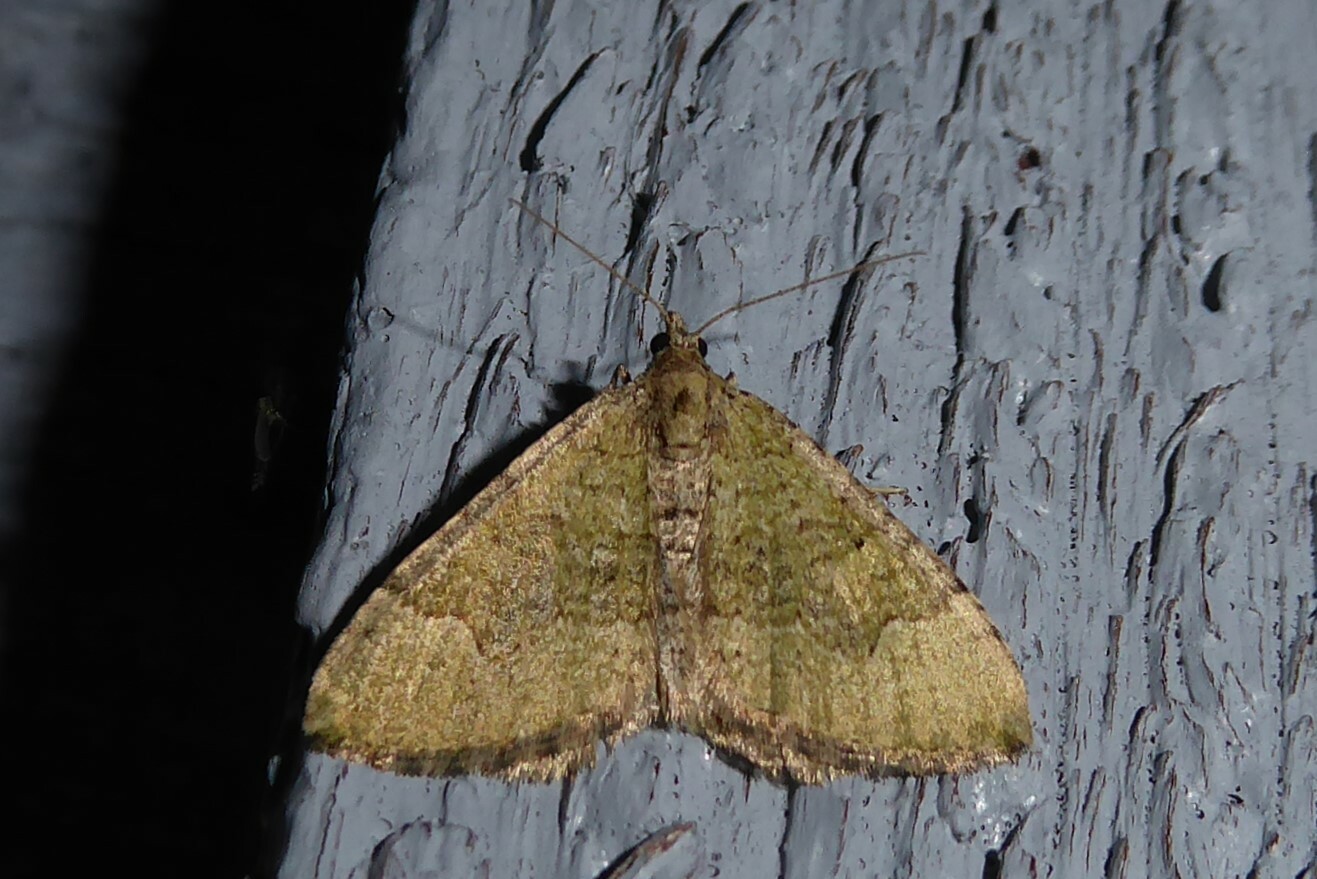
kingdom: Animalia
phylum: Arthropoda
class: Insecta
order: Lepidoptera
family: Geometridae
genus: Epyaxa
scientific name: Epyaxa rosearia
